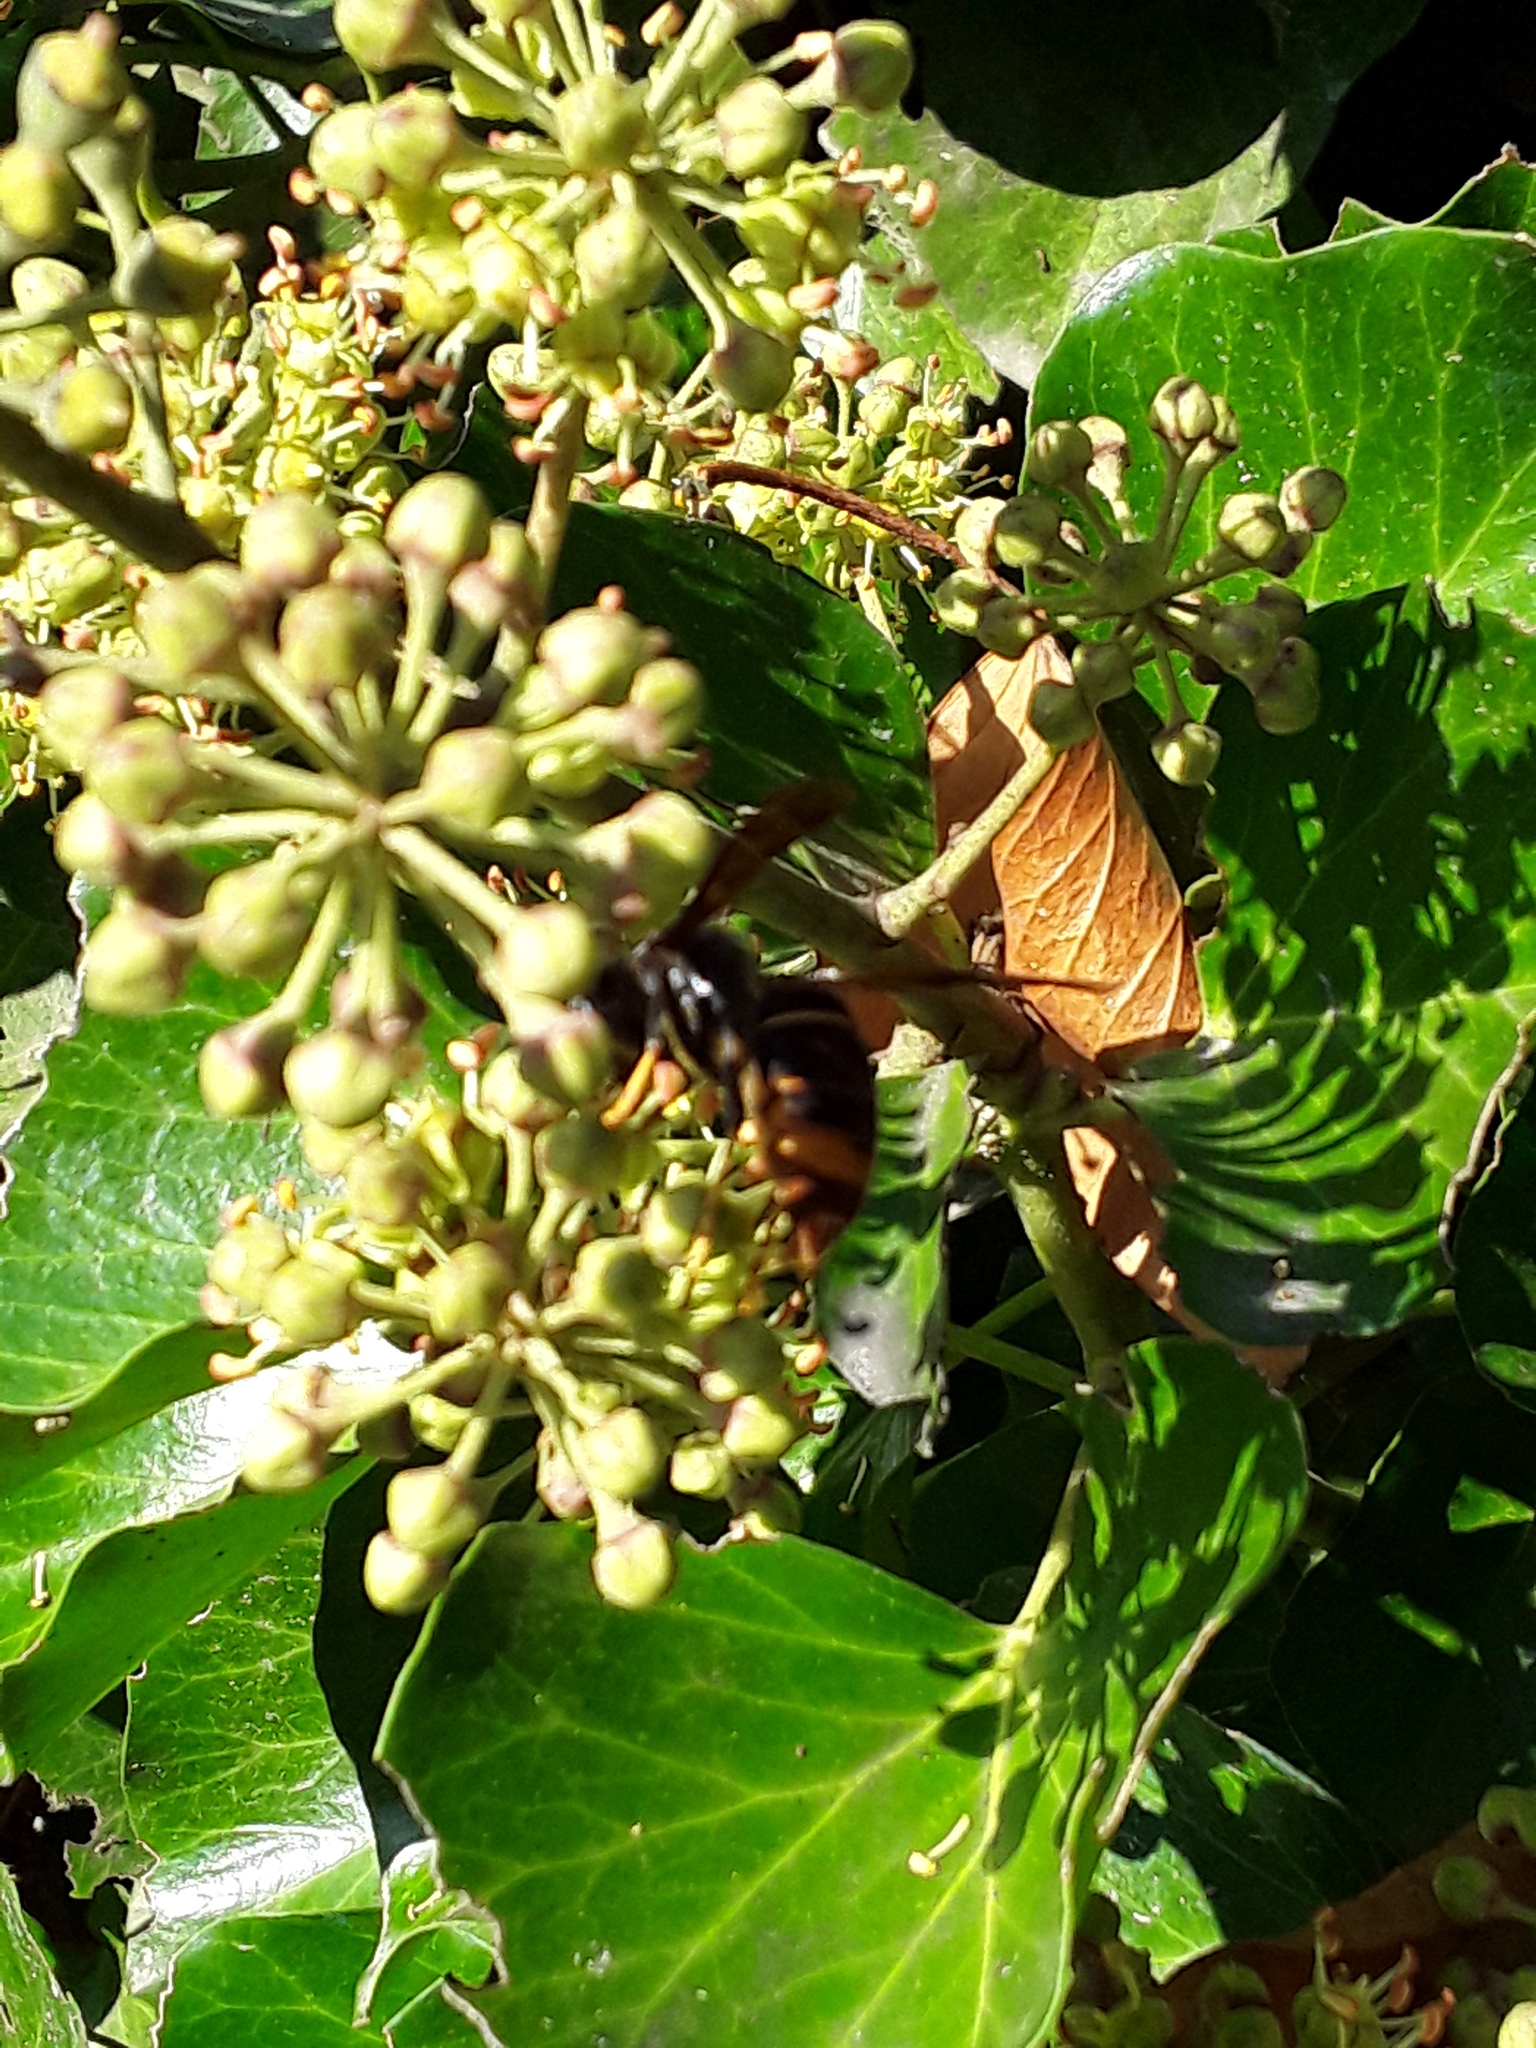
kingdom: Animalia
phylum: Arthropoda
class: Insecta
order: Hymenoptera
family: Vespidae
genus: Vespa
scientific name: Vespa velutina
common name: Asian hornet
